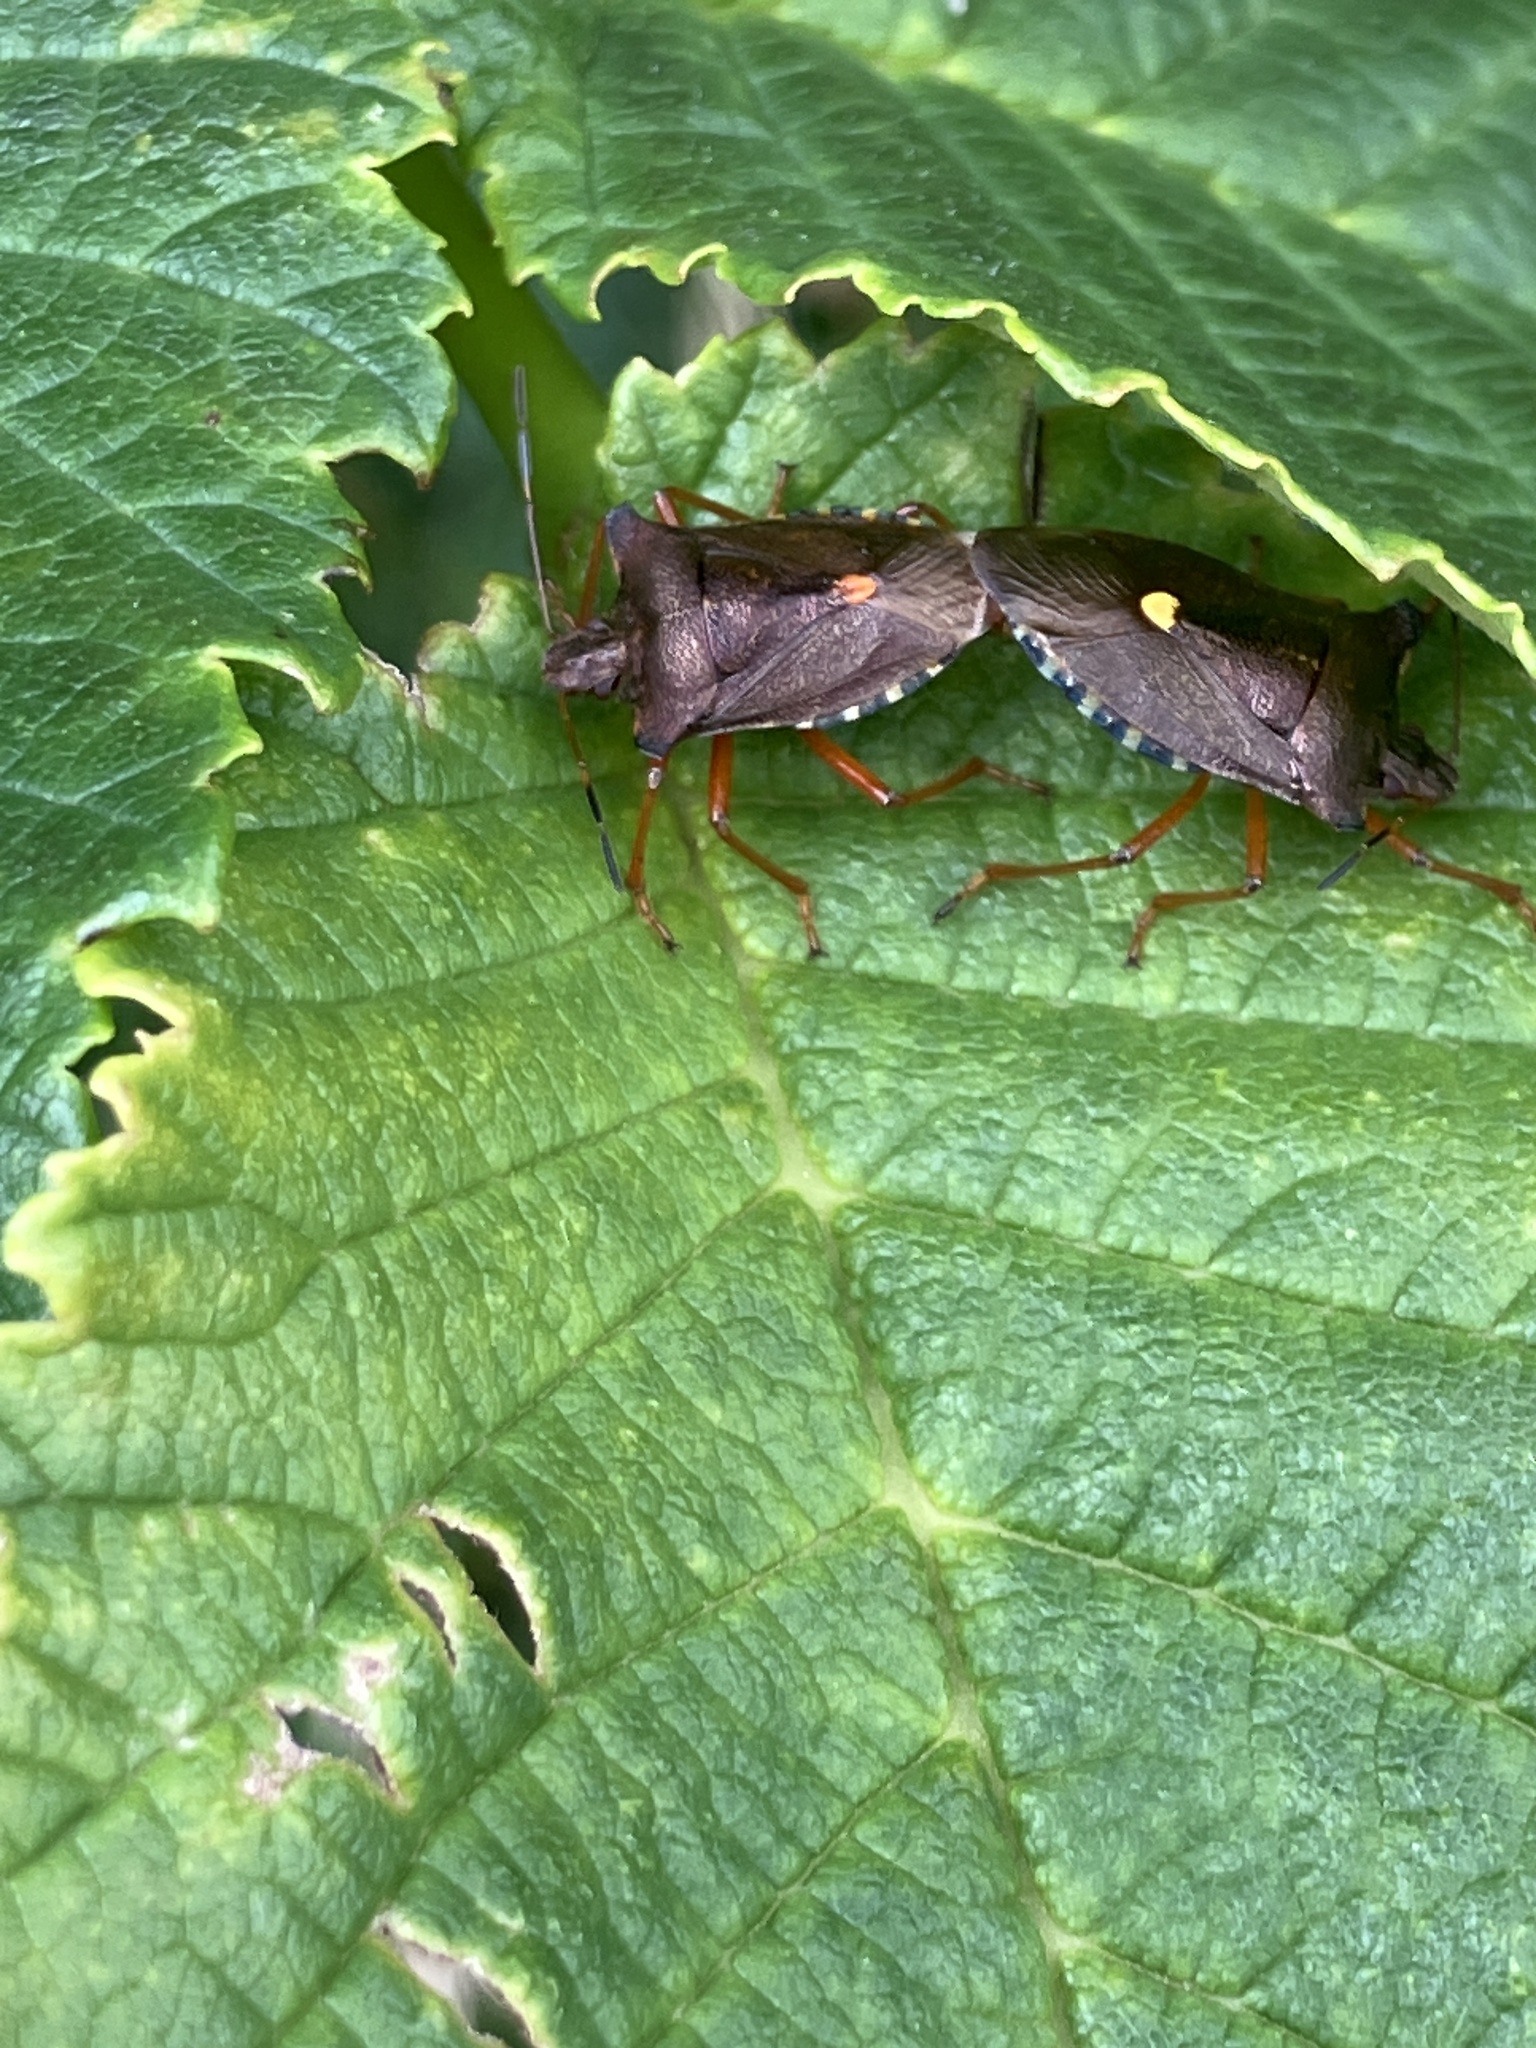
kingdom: Animalia
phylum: Arthropoda
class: Insecta
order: Hemiptera
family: Pentatomidae
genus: Pentatoma
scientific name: Pentatoma rufipes
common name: Forest bug
